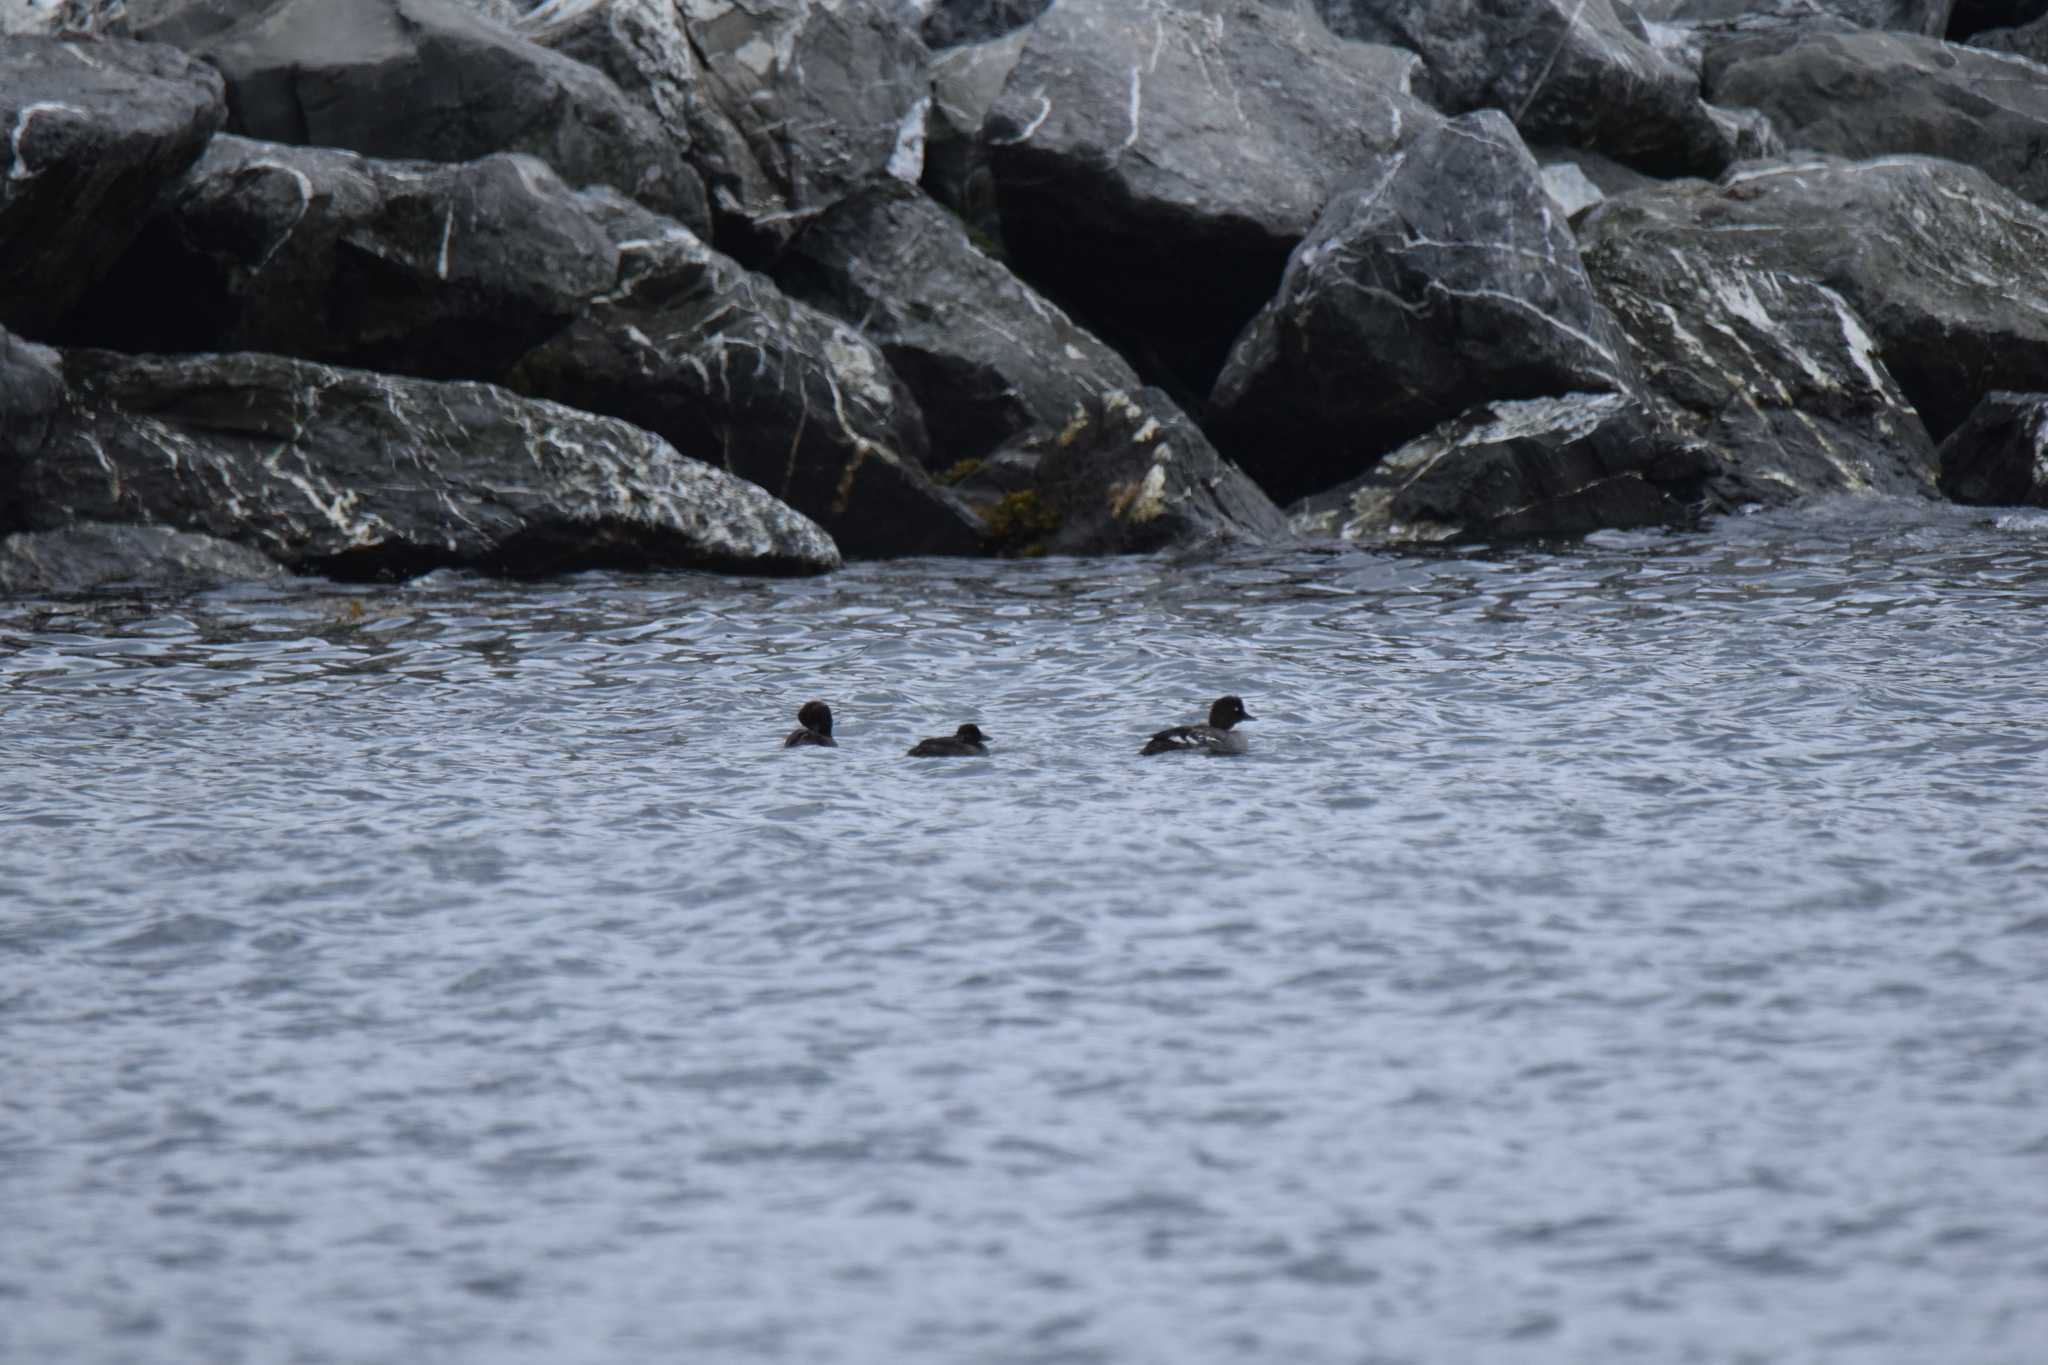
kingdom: Animalia
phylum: Chordata
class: Aves
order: Anseriformes
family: Anatidae
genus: Bucephala
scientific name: Bucephala clangula
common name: Common goldeneye
